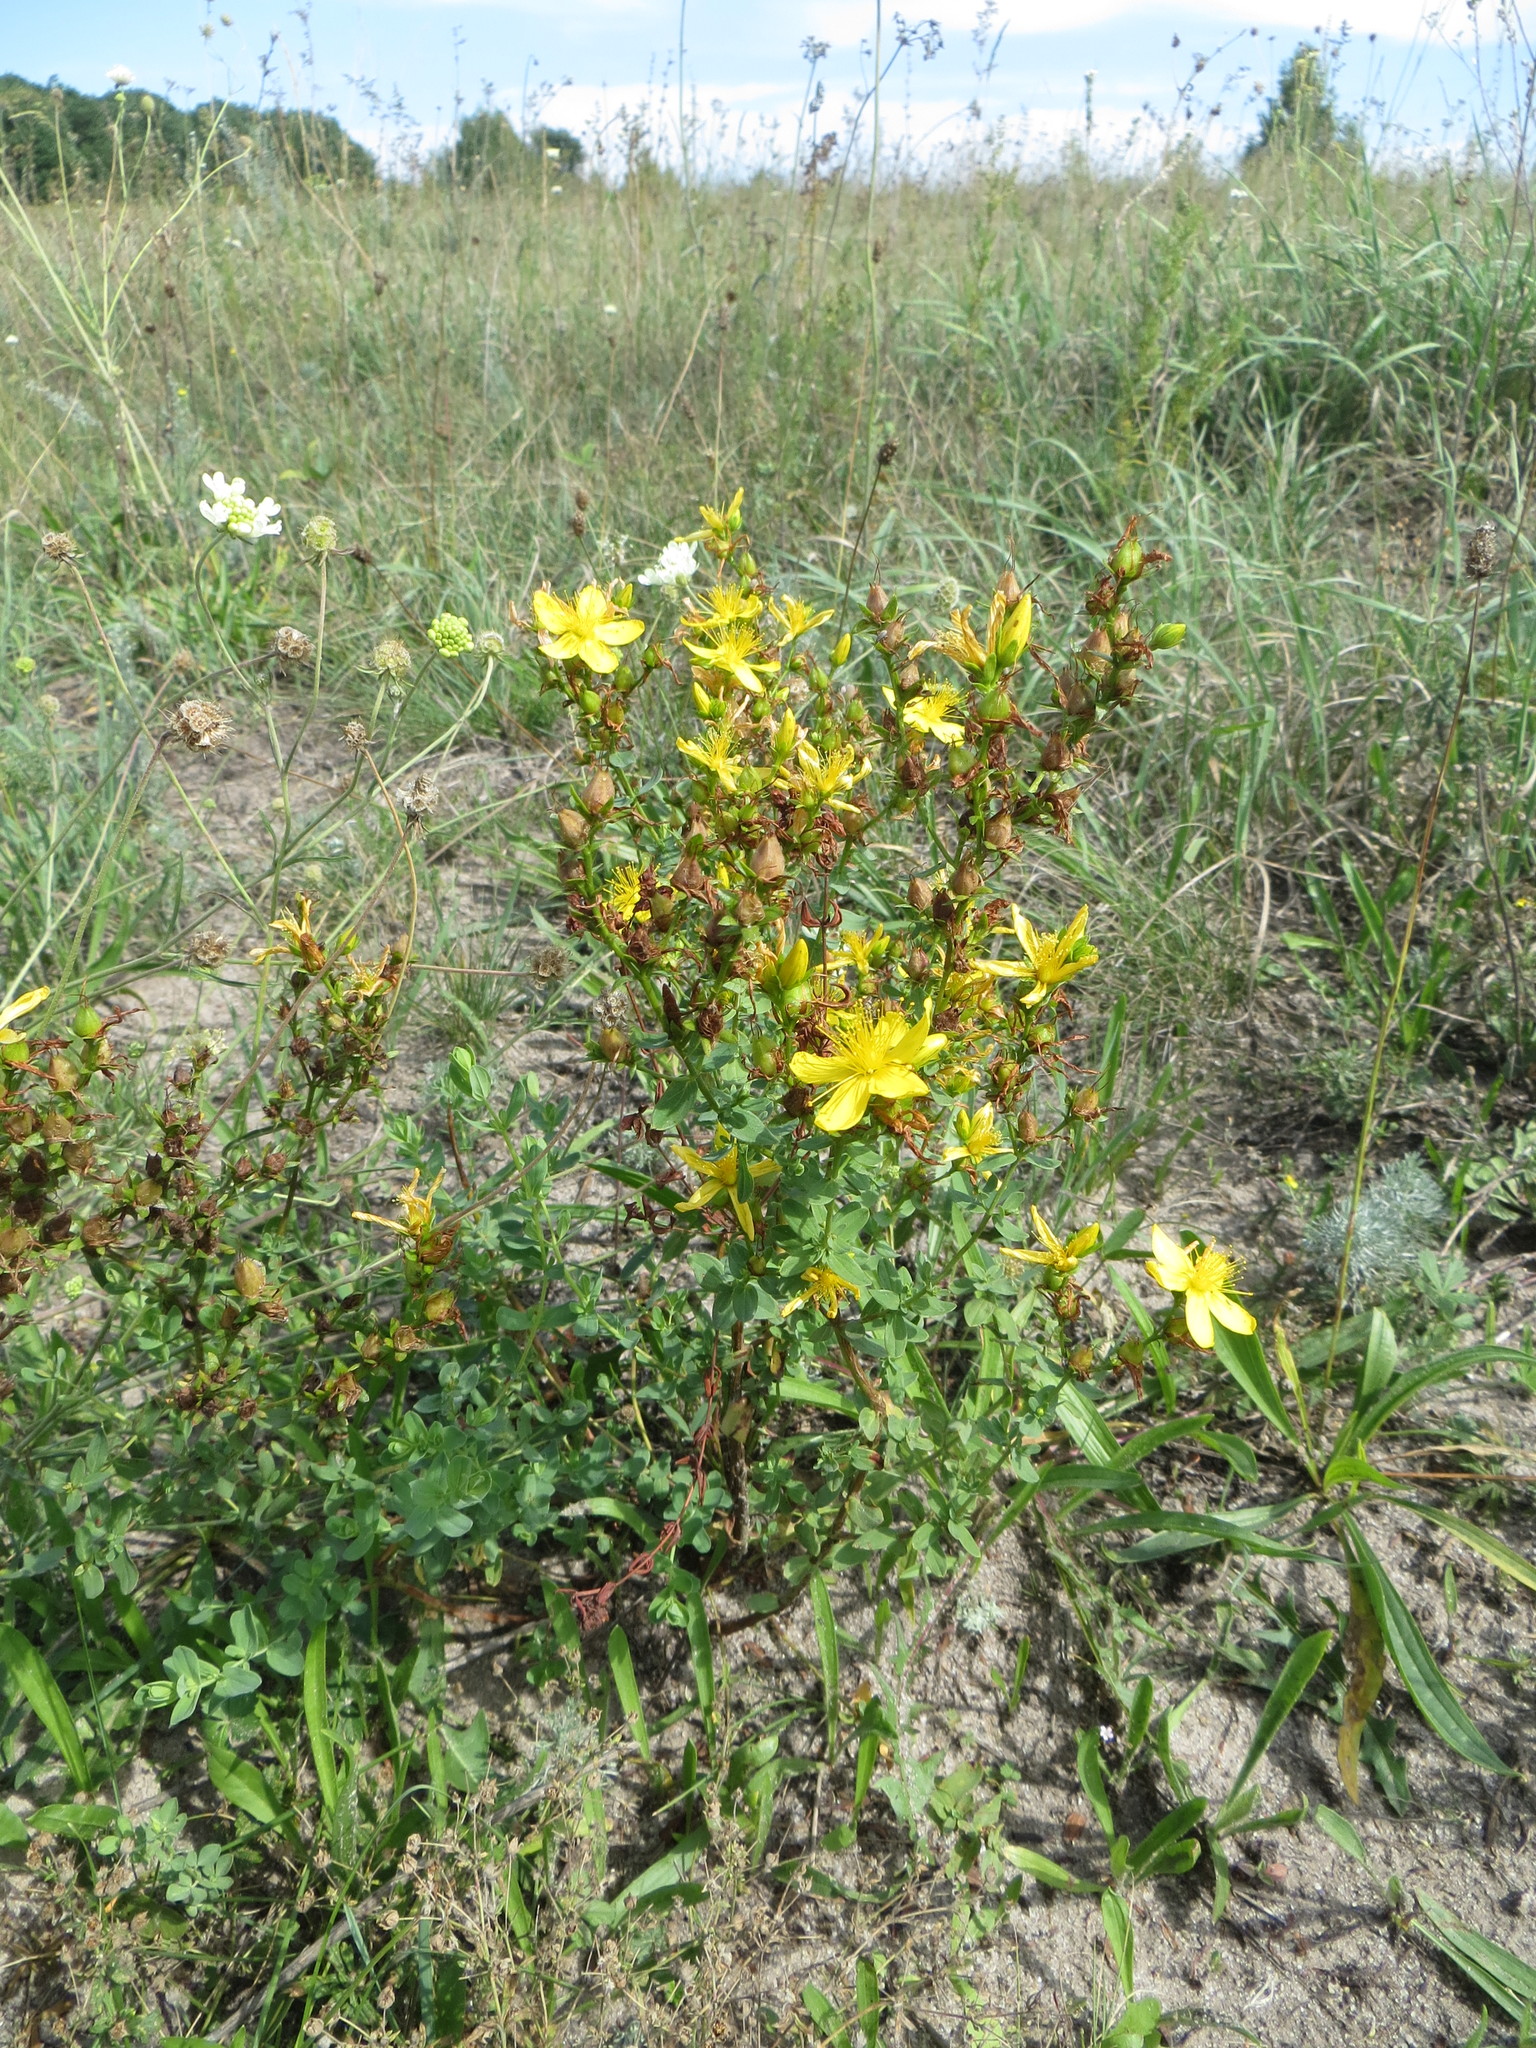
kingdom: Plantae
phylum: Tracheophyta
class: Magnoliopsida
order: Malpighiales
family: Hypericaceae
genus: Hypericum
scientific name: Hypericum perforatum
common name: Common st. johnswort
